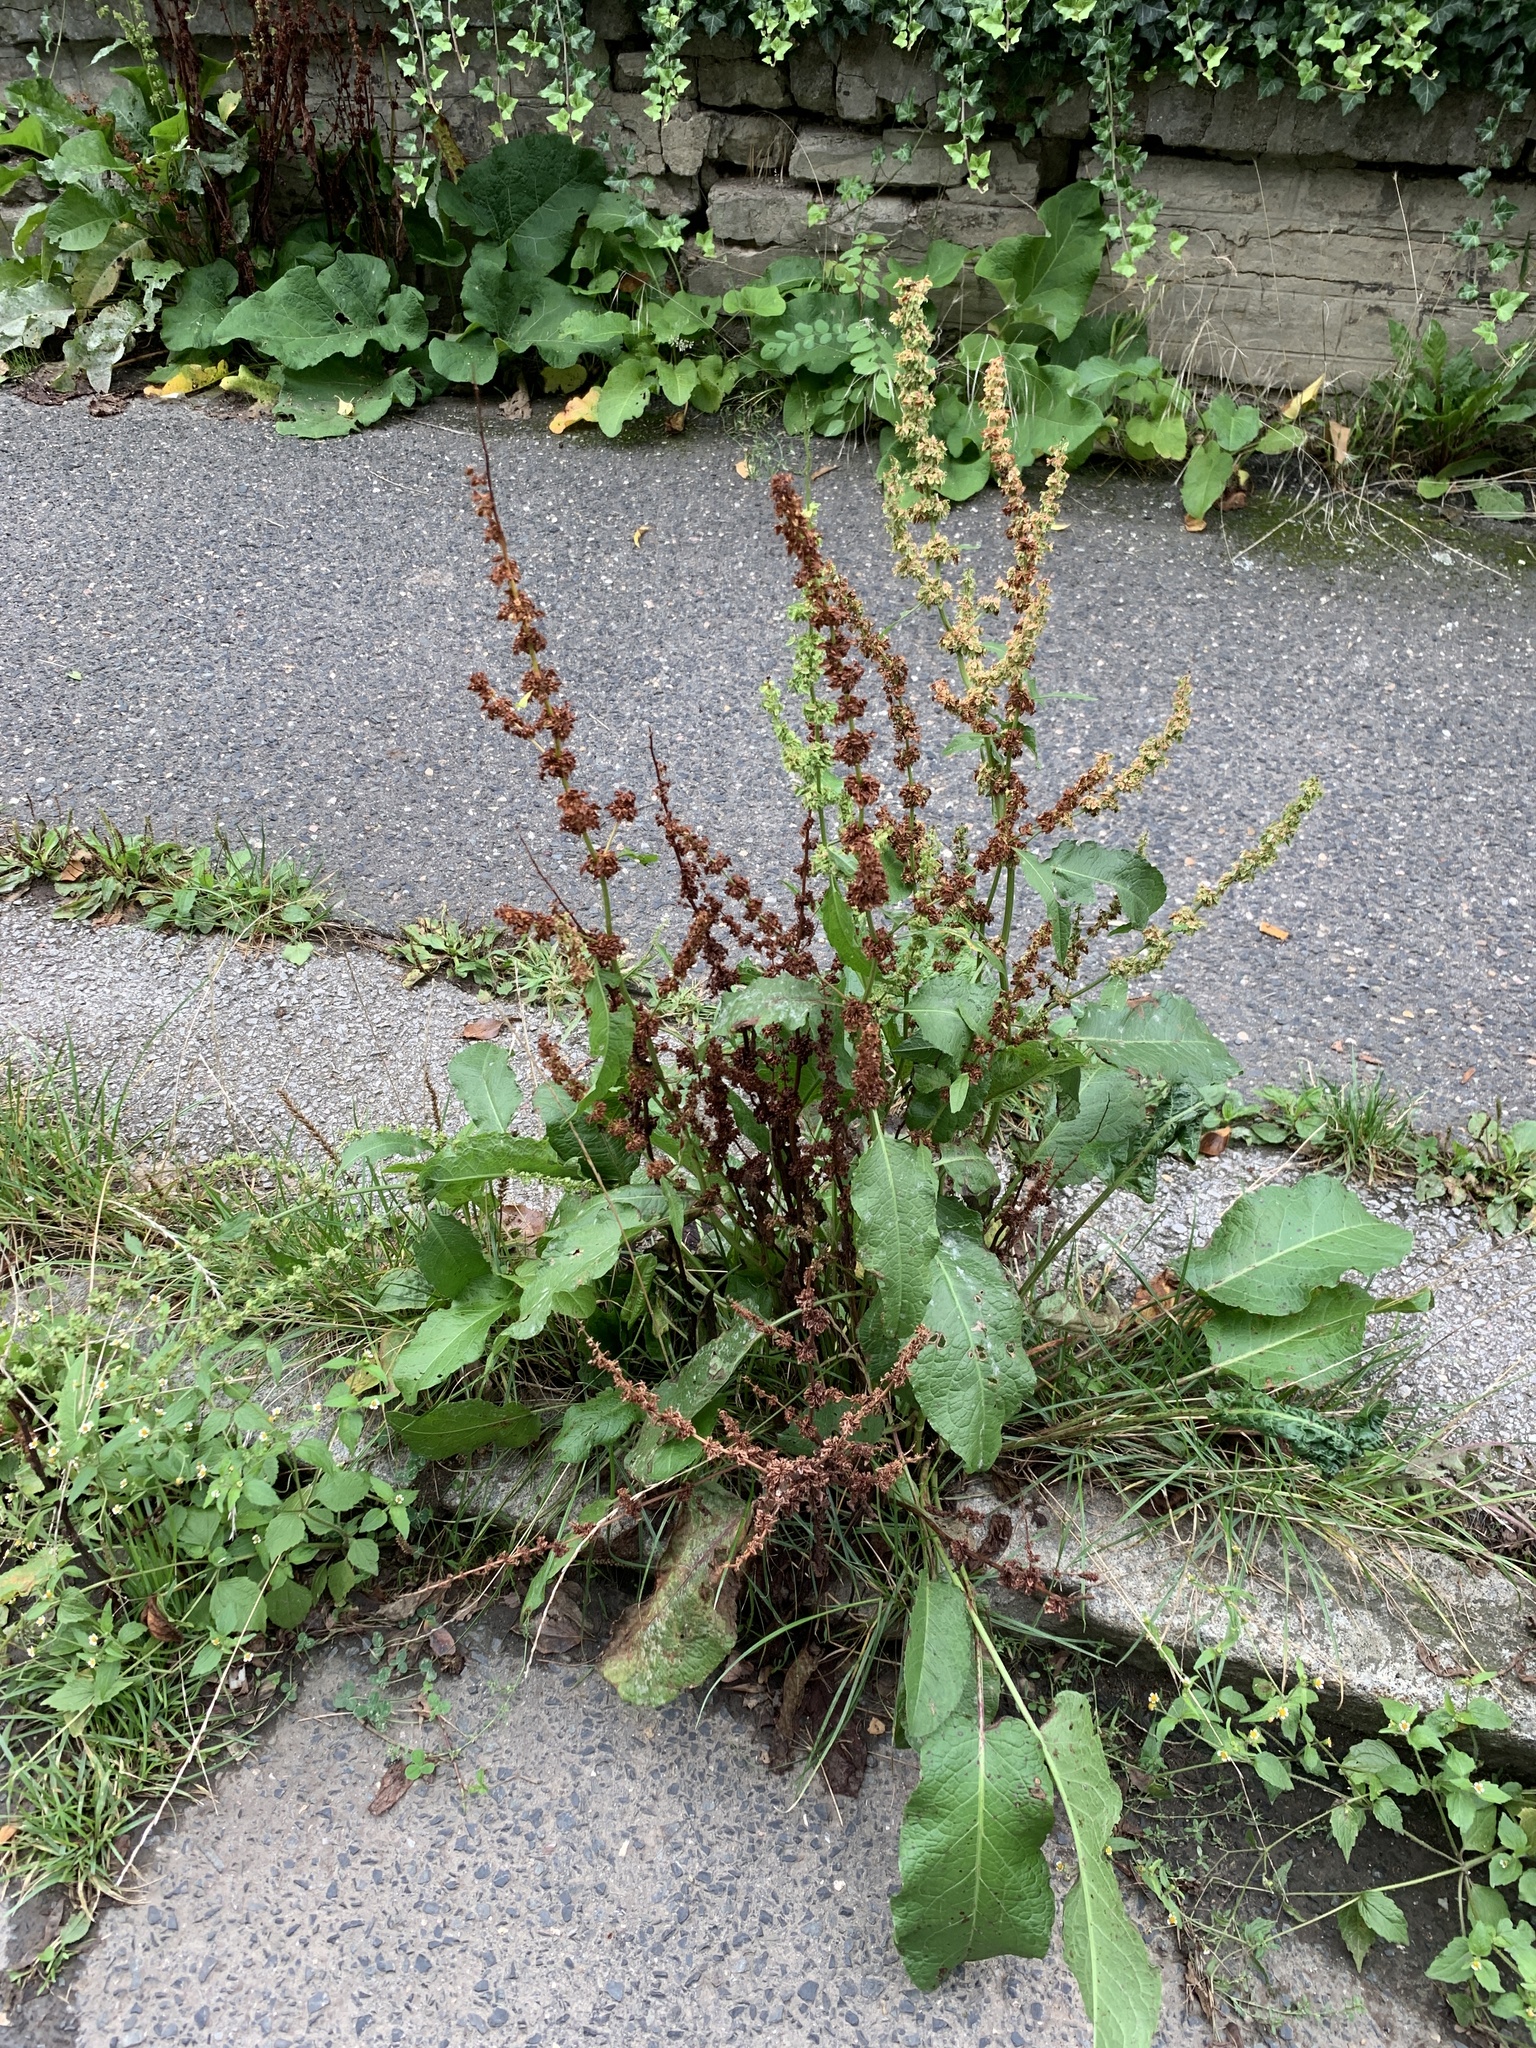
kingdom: Plantae
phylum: Tracheophyta
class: Magnoliopsida
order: Caryophyllales
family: Polygonaceae
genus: Rumex
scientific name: Rumex obtusifolius
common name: Bitter dock
